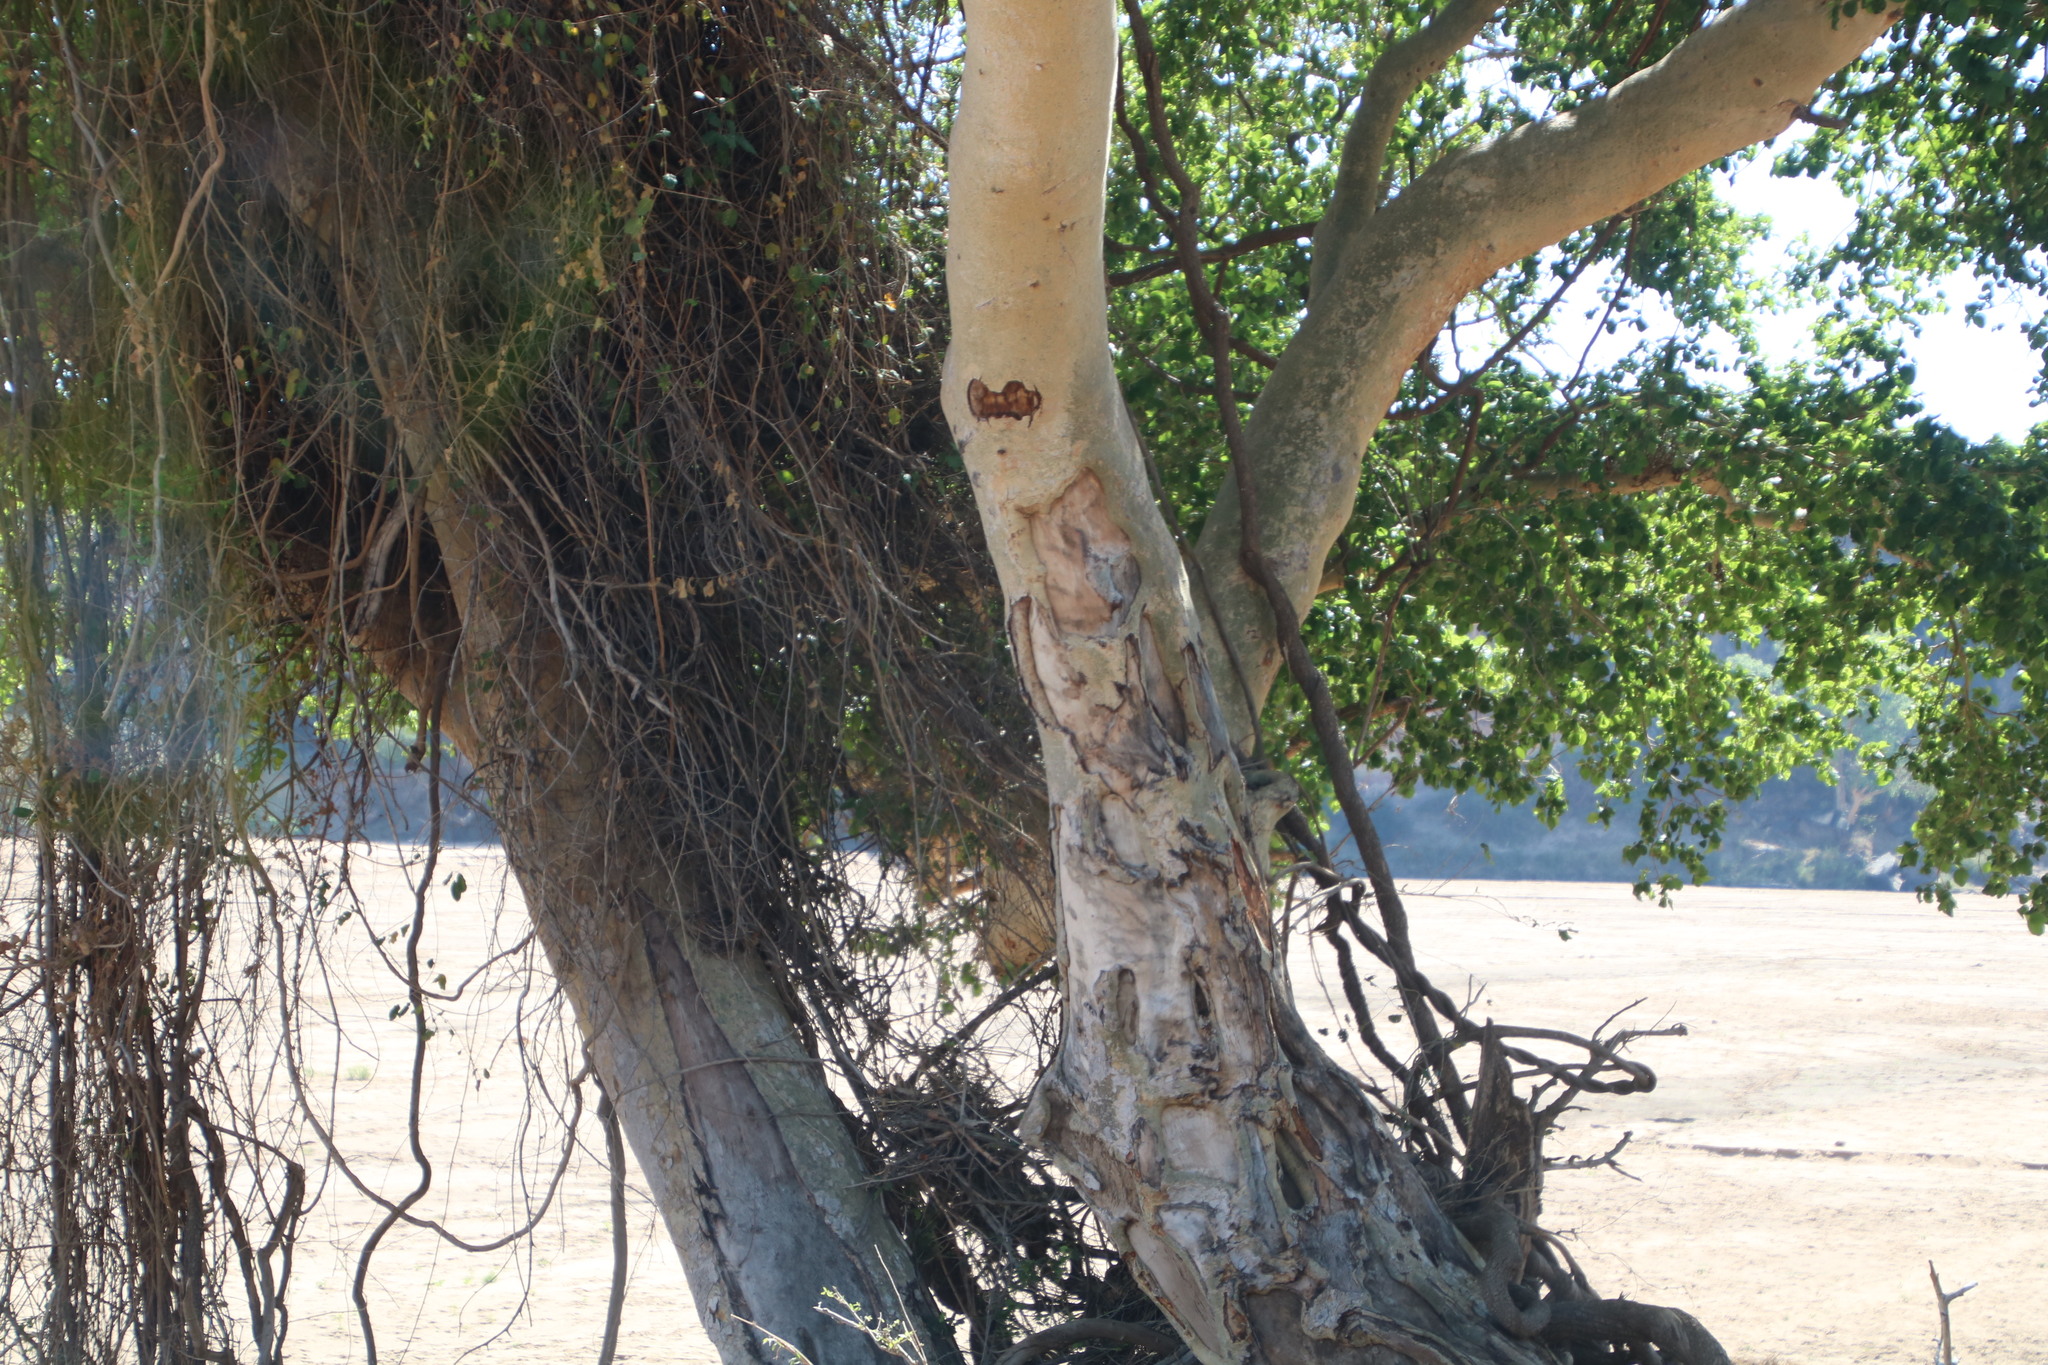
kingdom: Plantae
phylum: Tracheophyta
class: Magnoliopsida
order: Rosales
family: Moraceae
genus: Ficus
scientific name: Ficus sycomorus
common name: Sycomore
